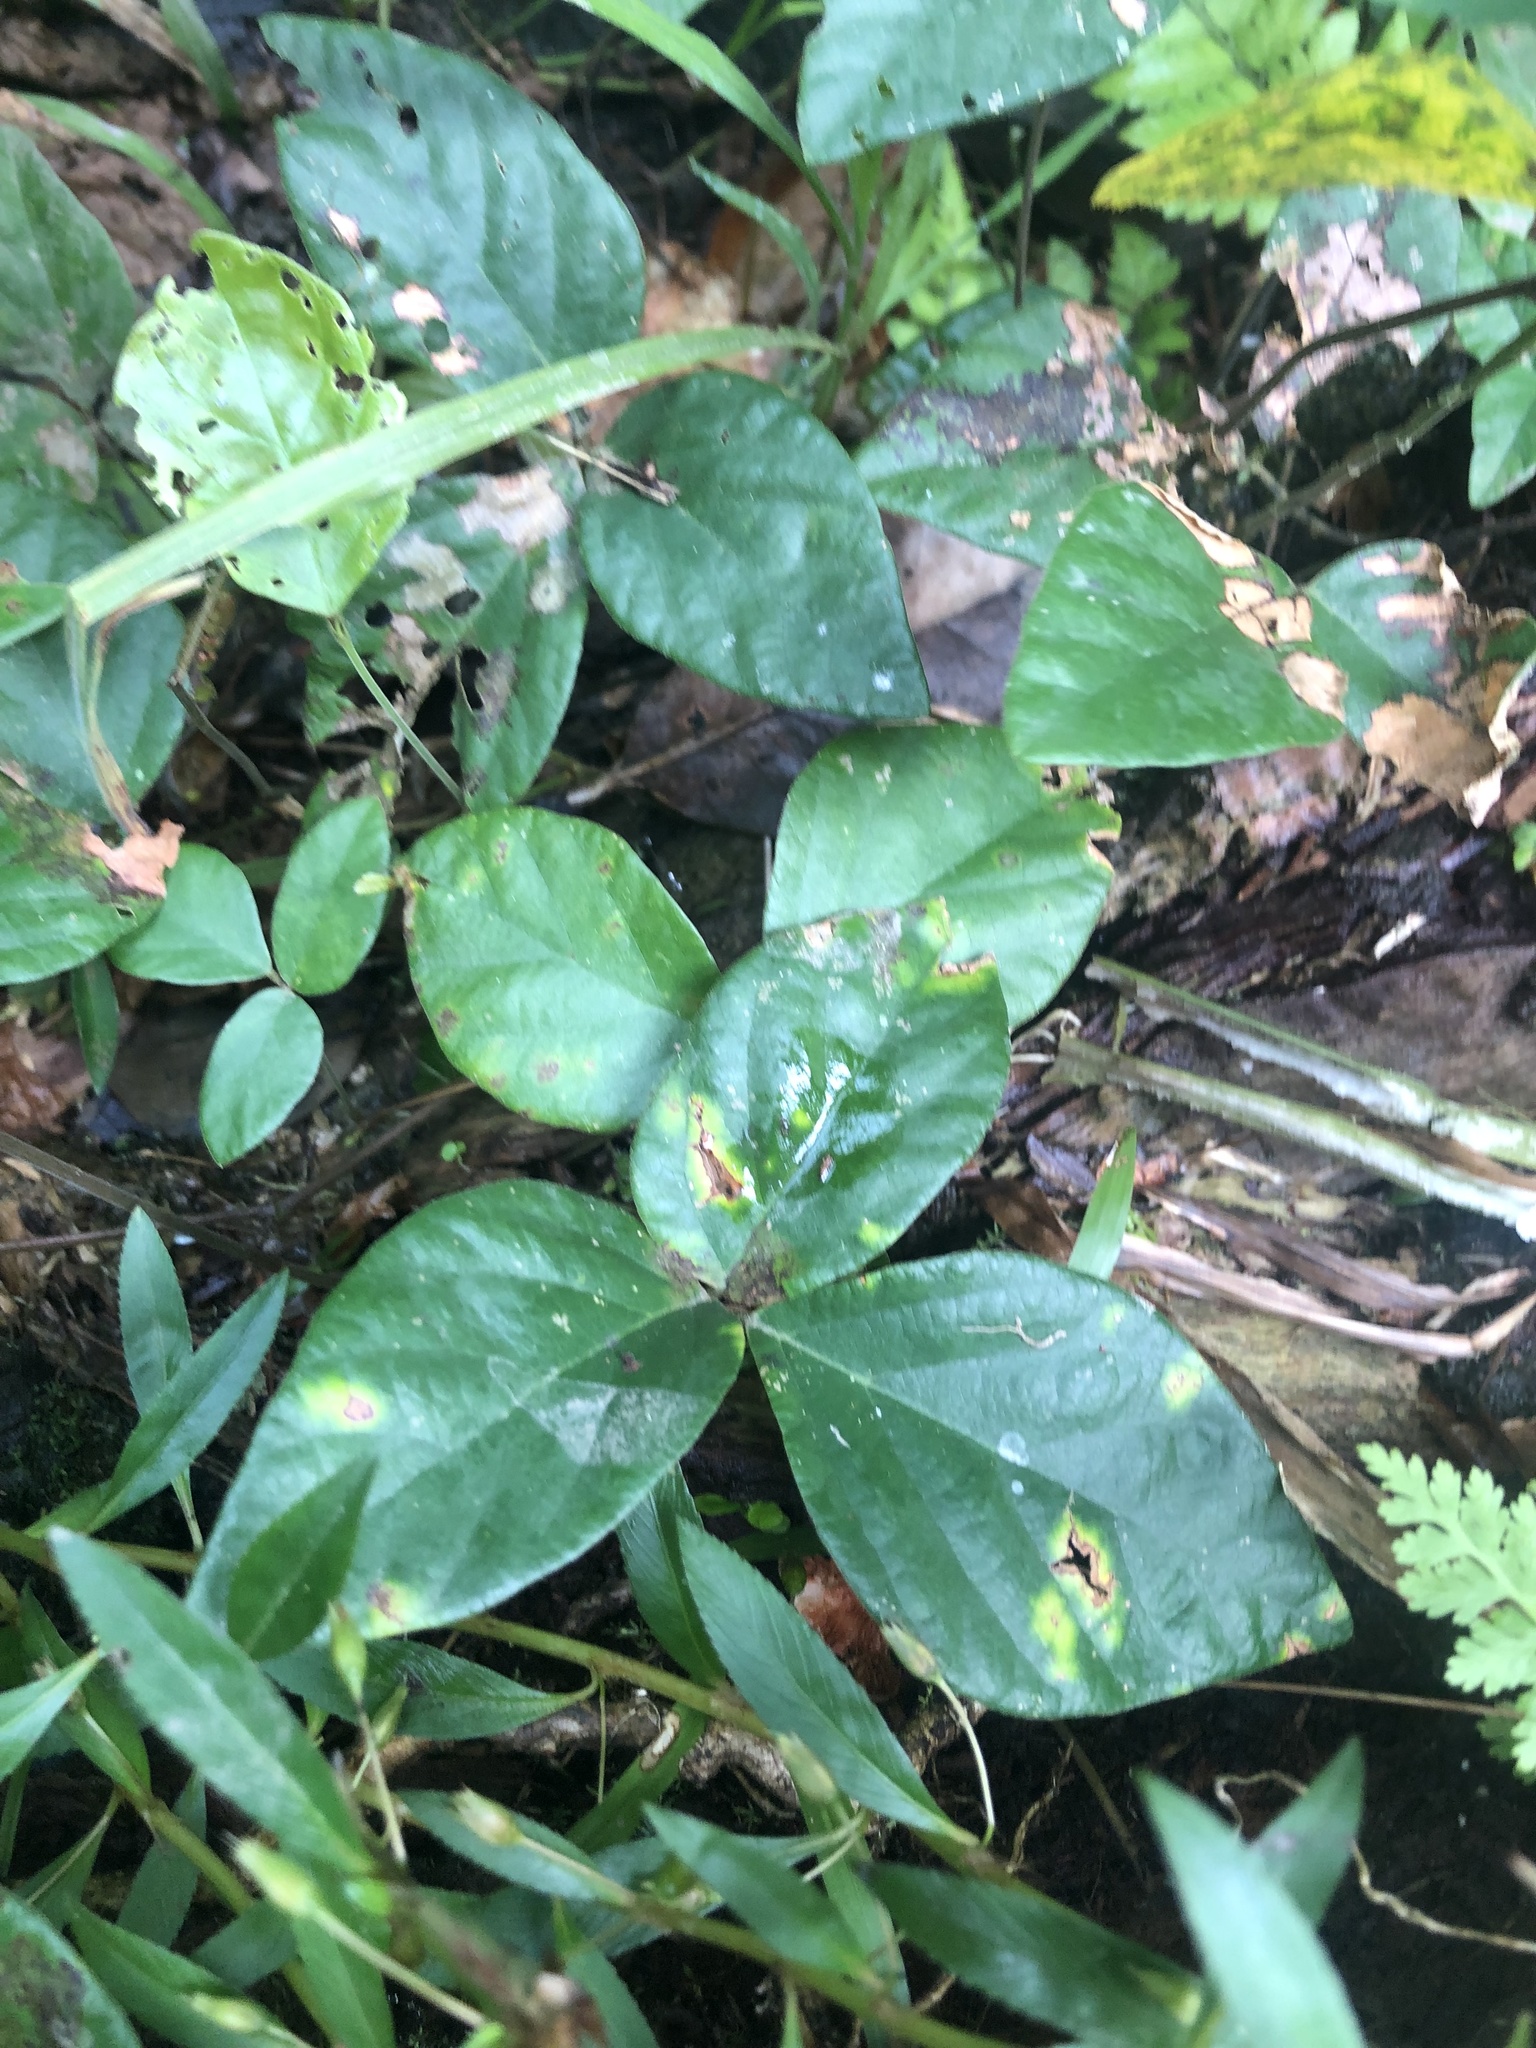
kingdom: Plantae
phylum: Tracheophyta
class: Magnoliopsida
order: Fabales
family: Fabaceae
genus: Desmodium
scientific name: Desmodium axillare
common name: Wire with
